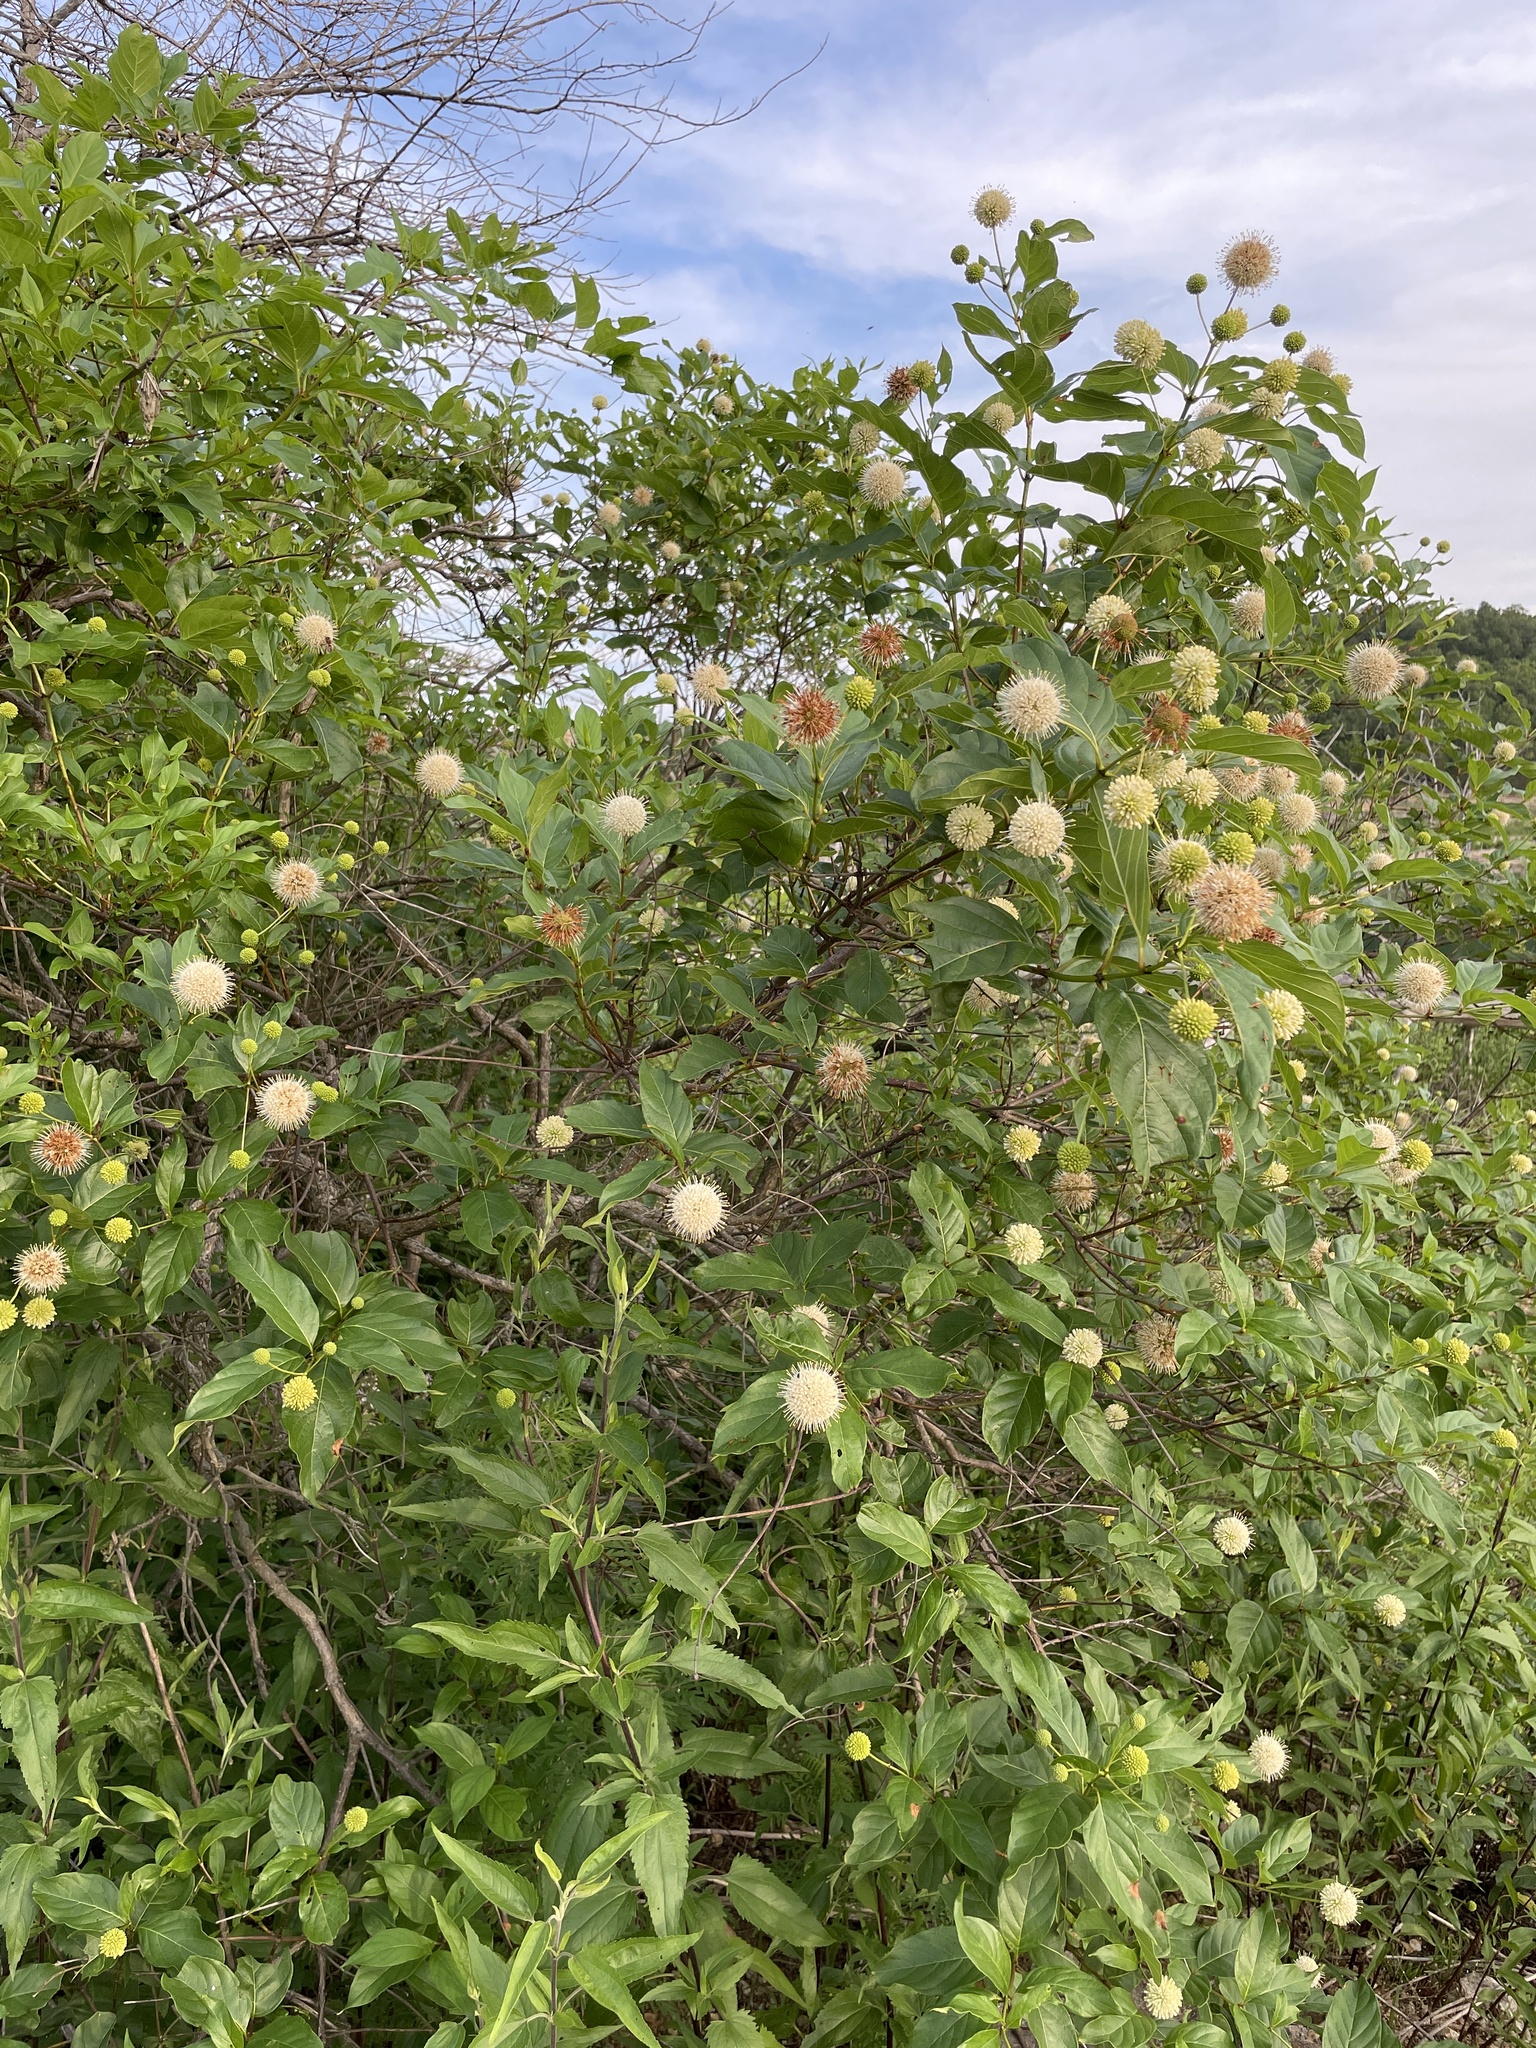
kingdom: Plantae
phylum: Tracheophyta
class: Magnoliopsida
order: Gentianales
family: Rubiaceae
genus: Cephalanthus
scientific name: Cephalanthus occidentalis
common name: Button-willow
